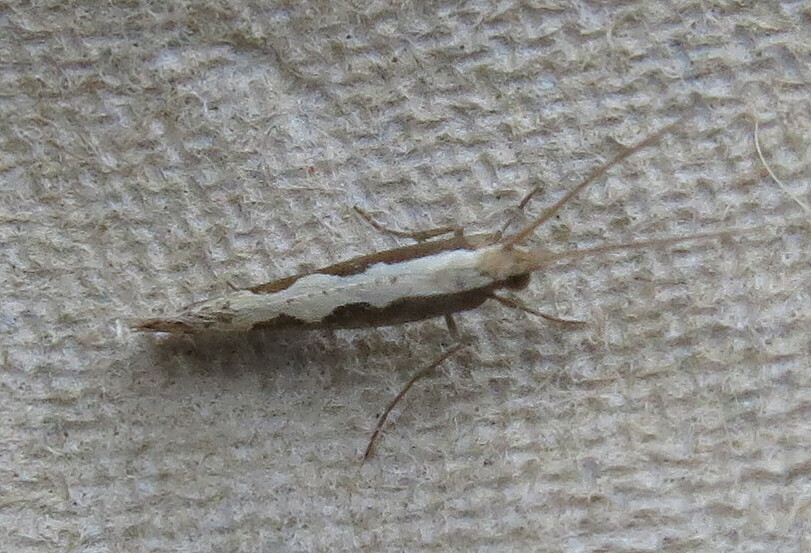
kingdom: Animalia
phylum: Arthropoda
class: Insecta
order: Lepidoptera
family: Plutellidae
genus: Plutella
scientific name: Plutella xylostella
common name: Diamond-back moth
